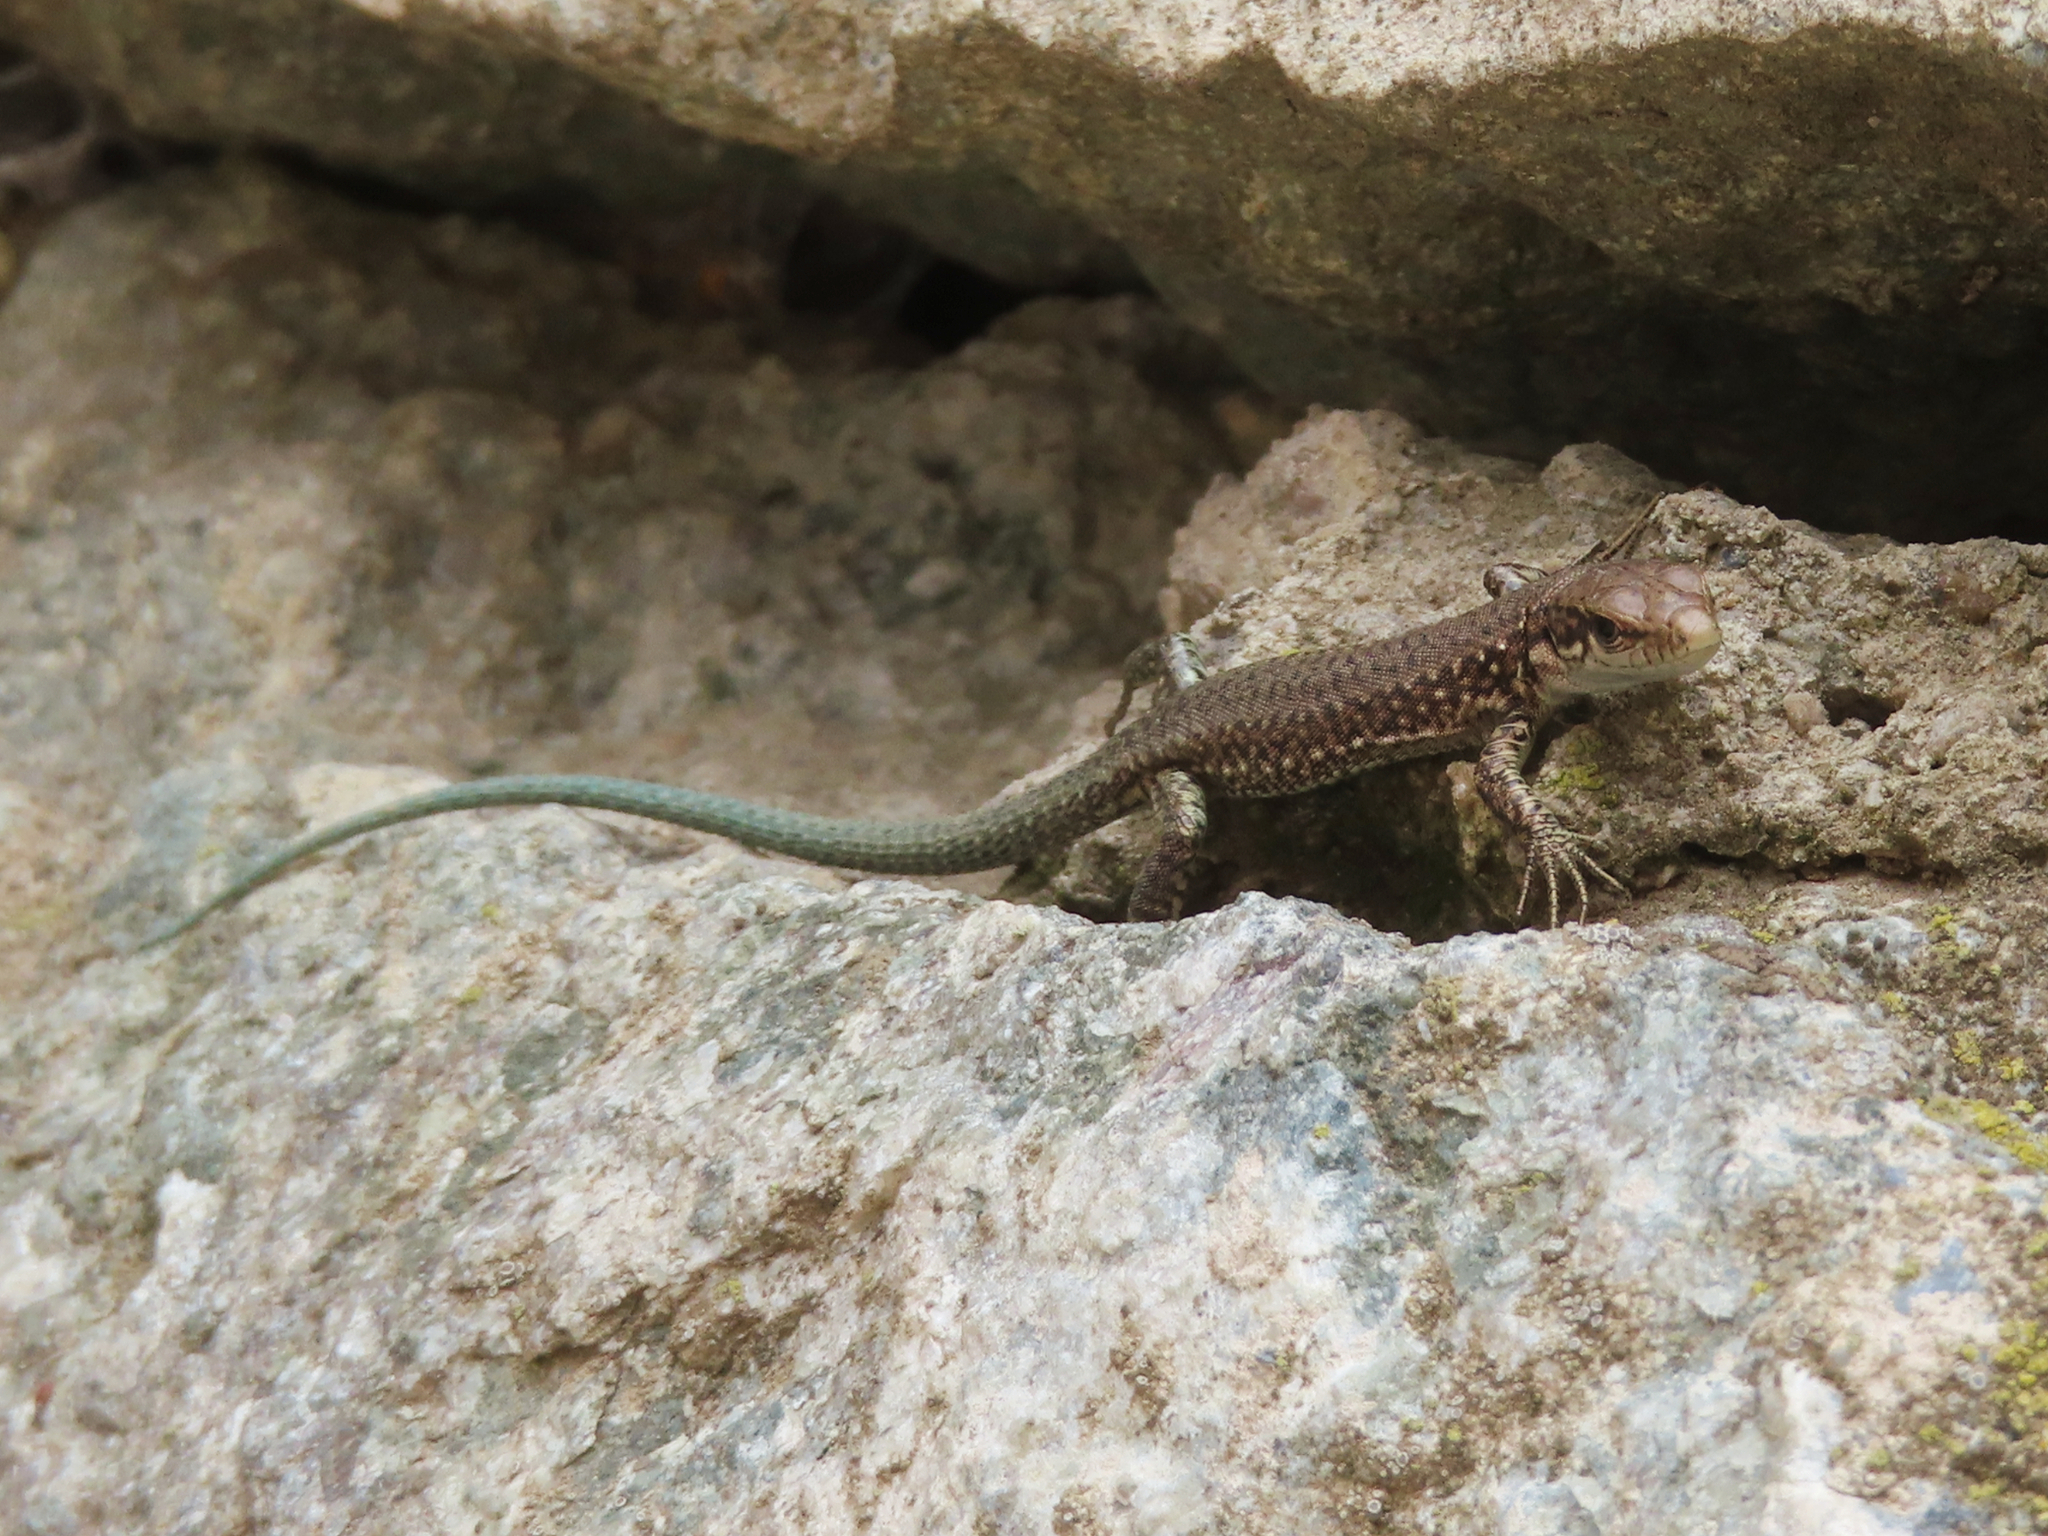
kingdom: Animalia
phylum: Chordata
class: Squamata
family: Lacertidae
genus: Darevskia
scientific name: Darevskia armeniaca
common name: Armenian lizard
